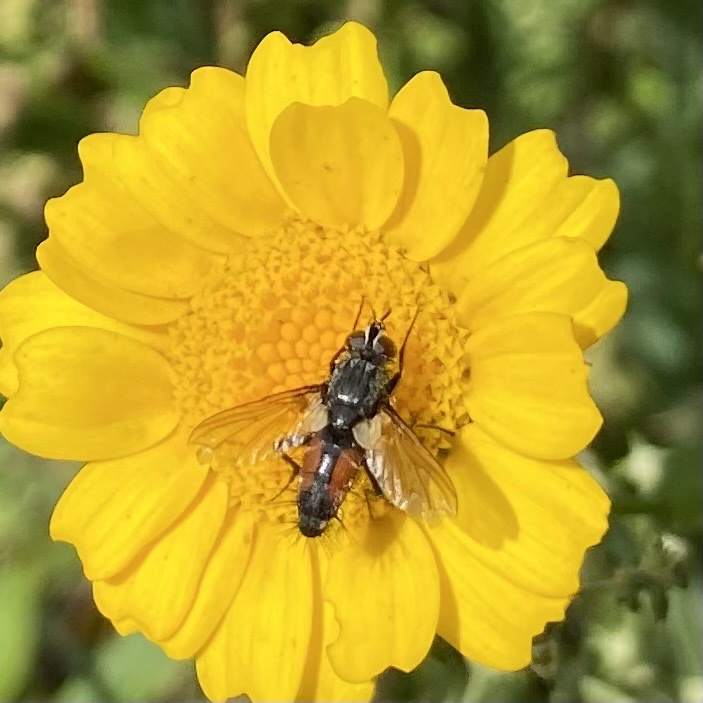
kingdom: Animalia
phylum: Arthropoda
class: Insecta
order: Diptera
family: Tachinidae
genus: Eriothrix
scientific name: Eriothrix rufomaculatus
